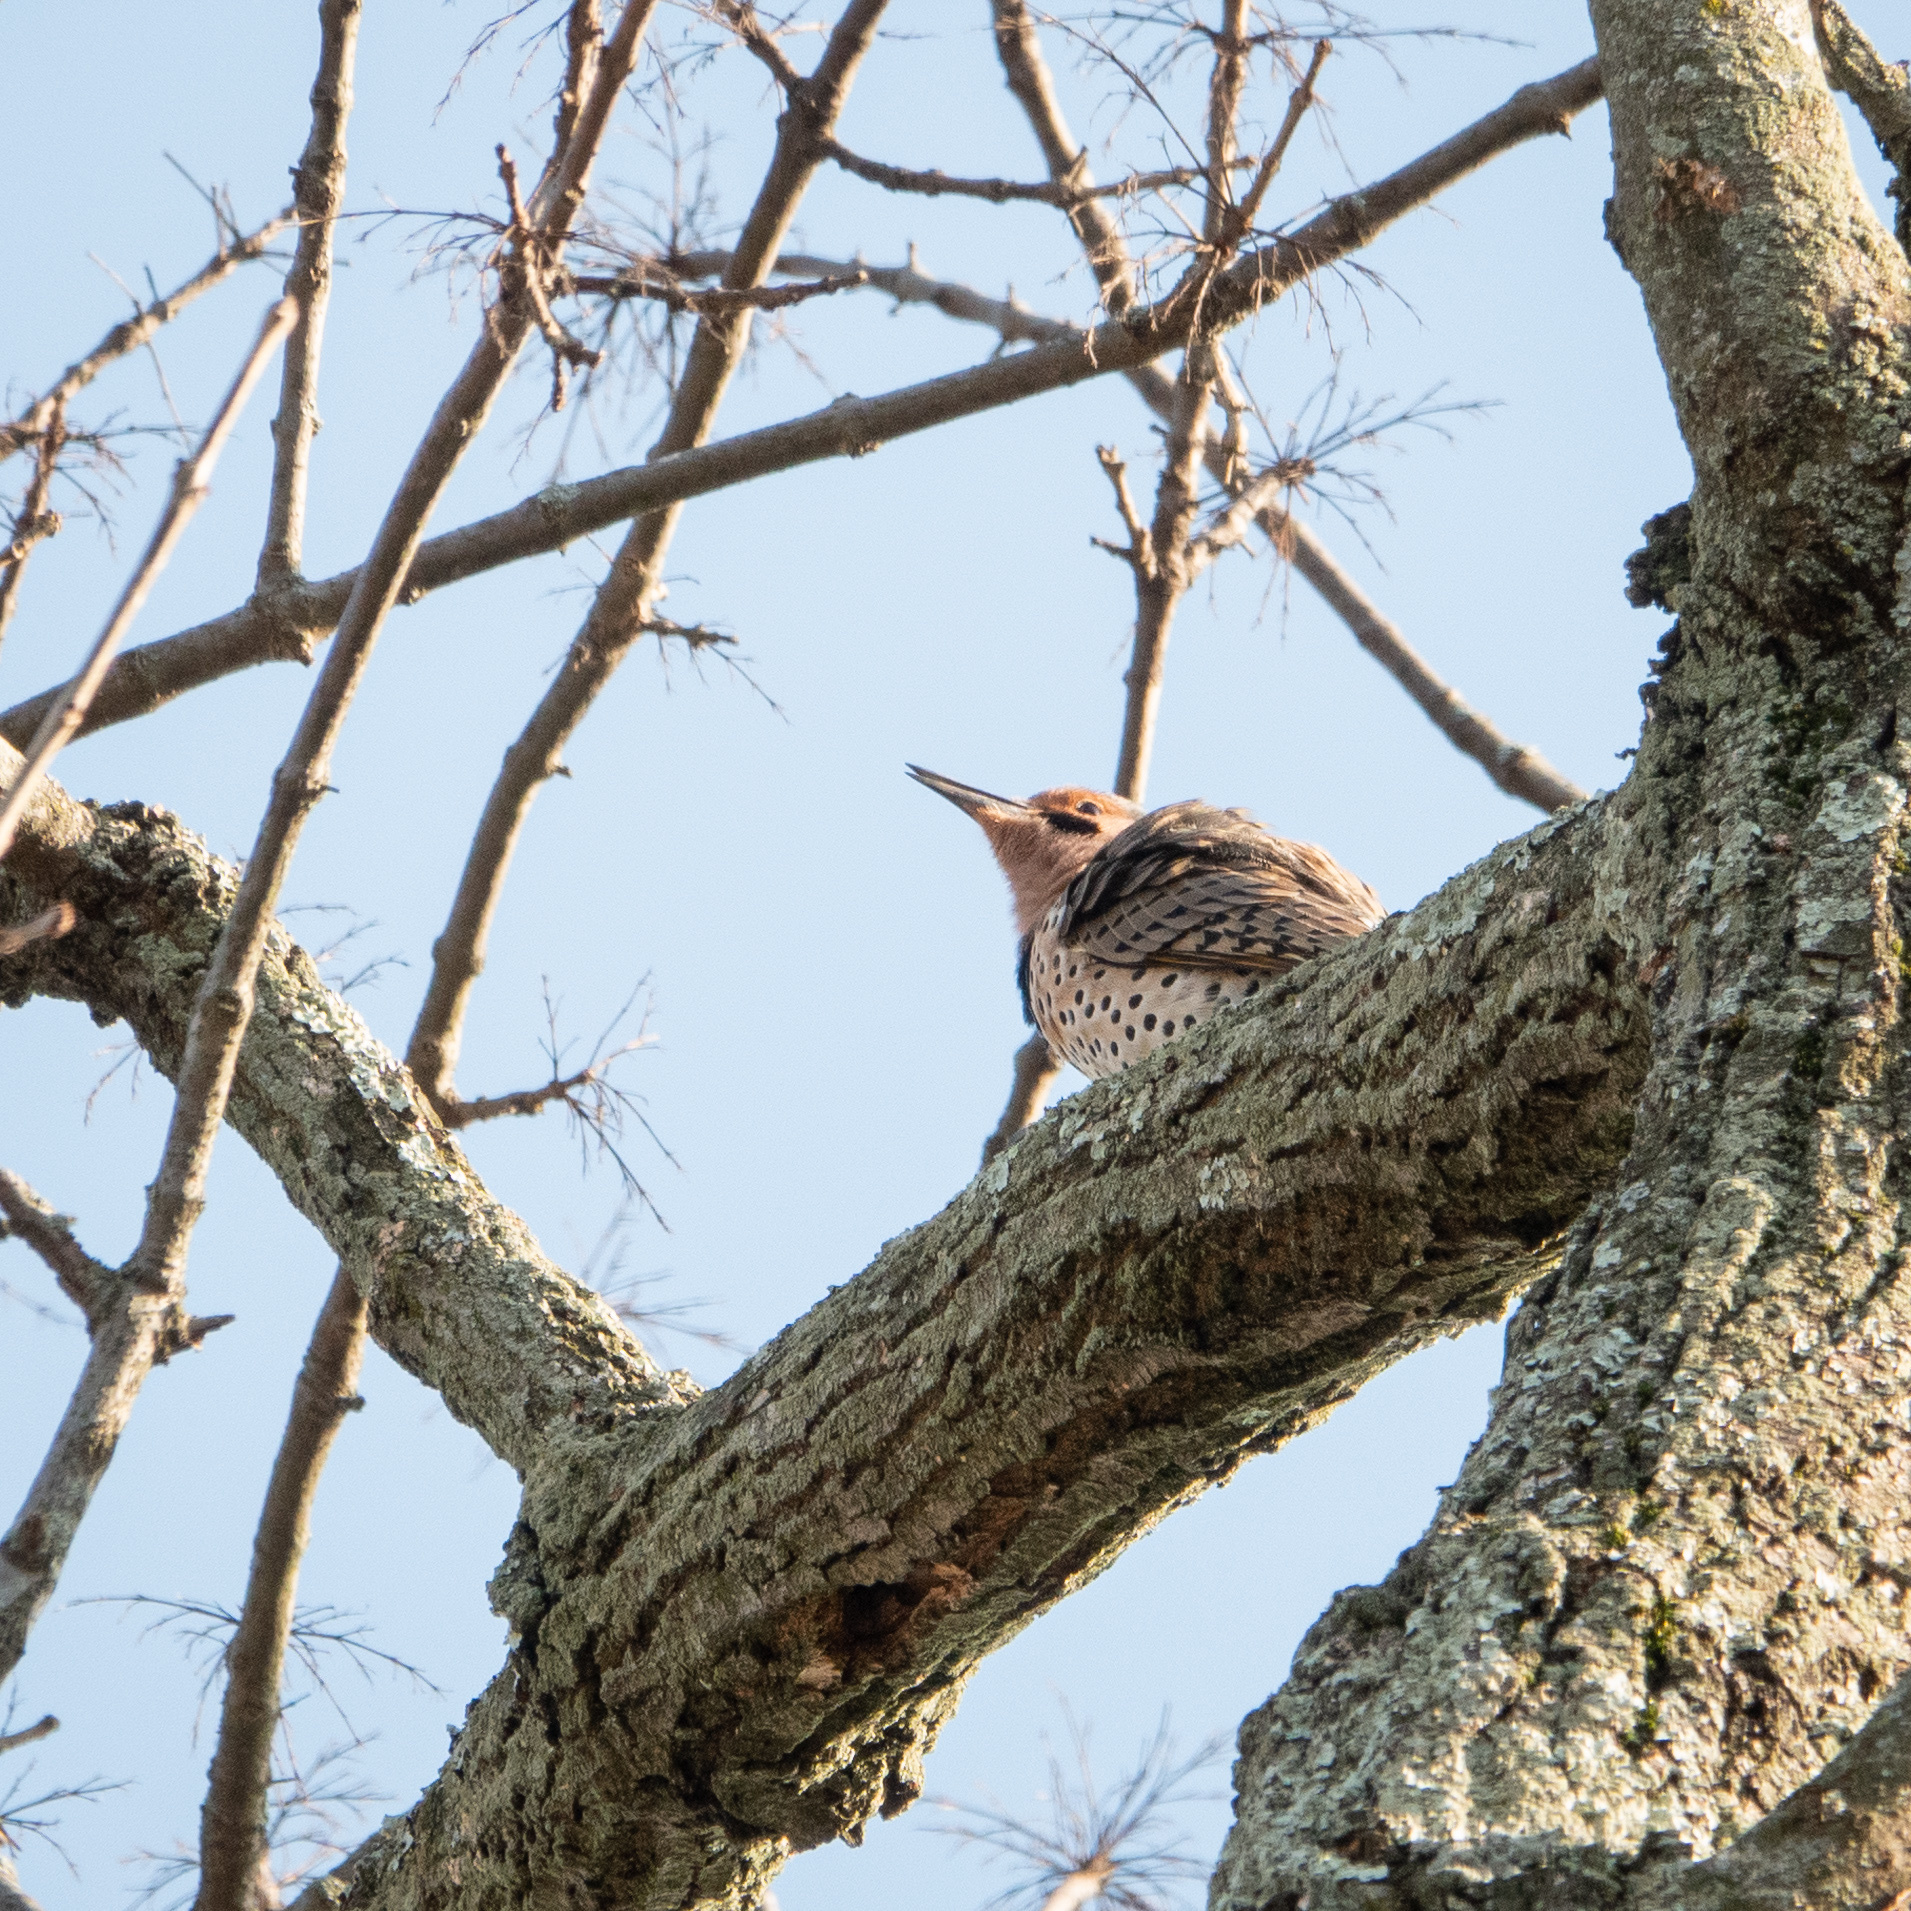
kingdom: Animalia
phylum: Chordata
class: Aves
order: Piciformes
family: Picidae
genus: Colaptes
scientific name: Colaptes auratus
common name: Northern flicker
